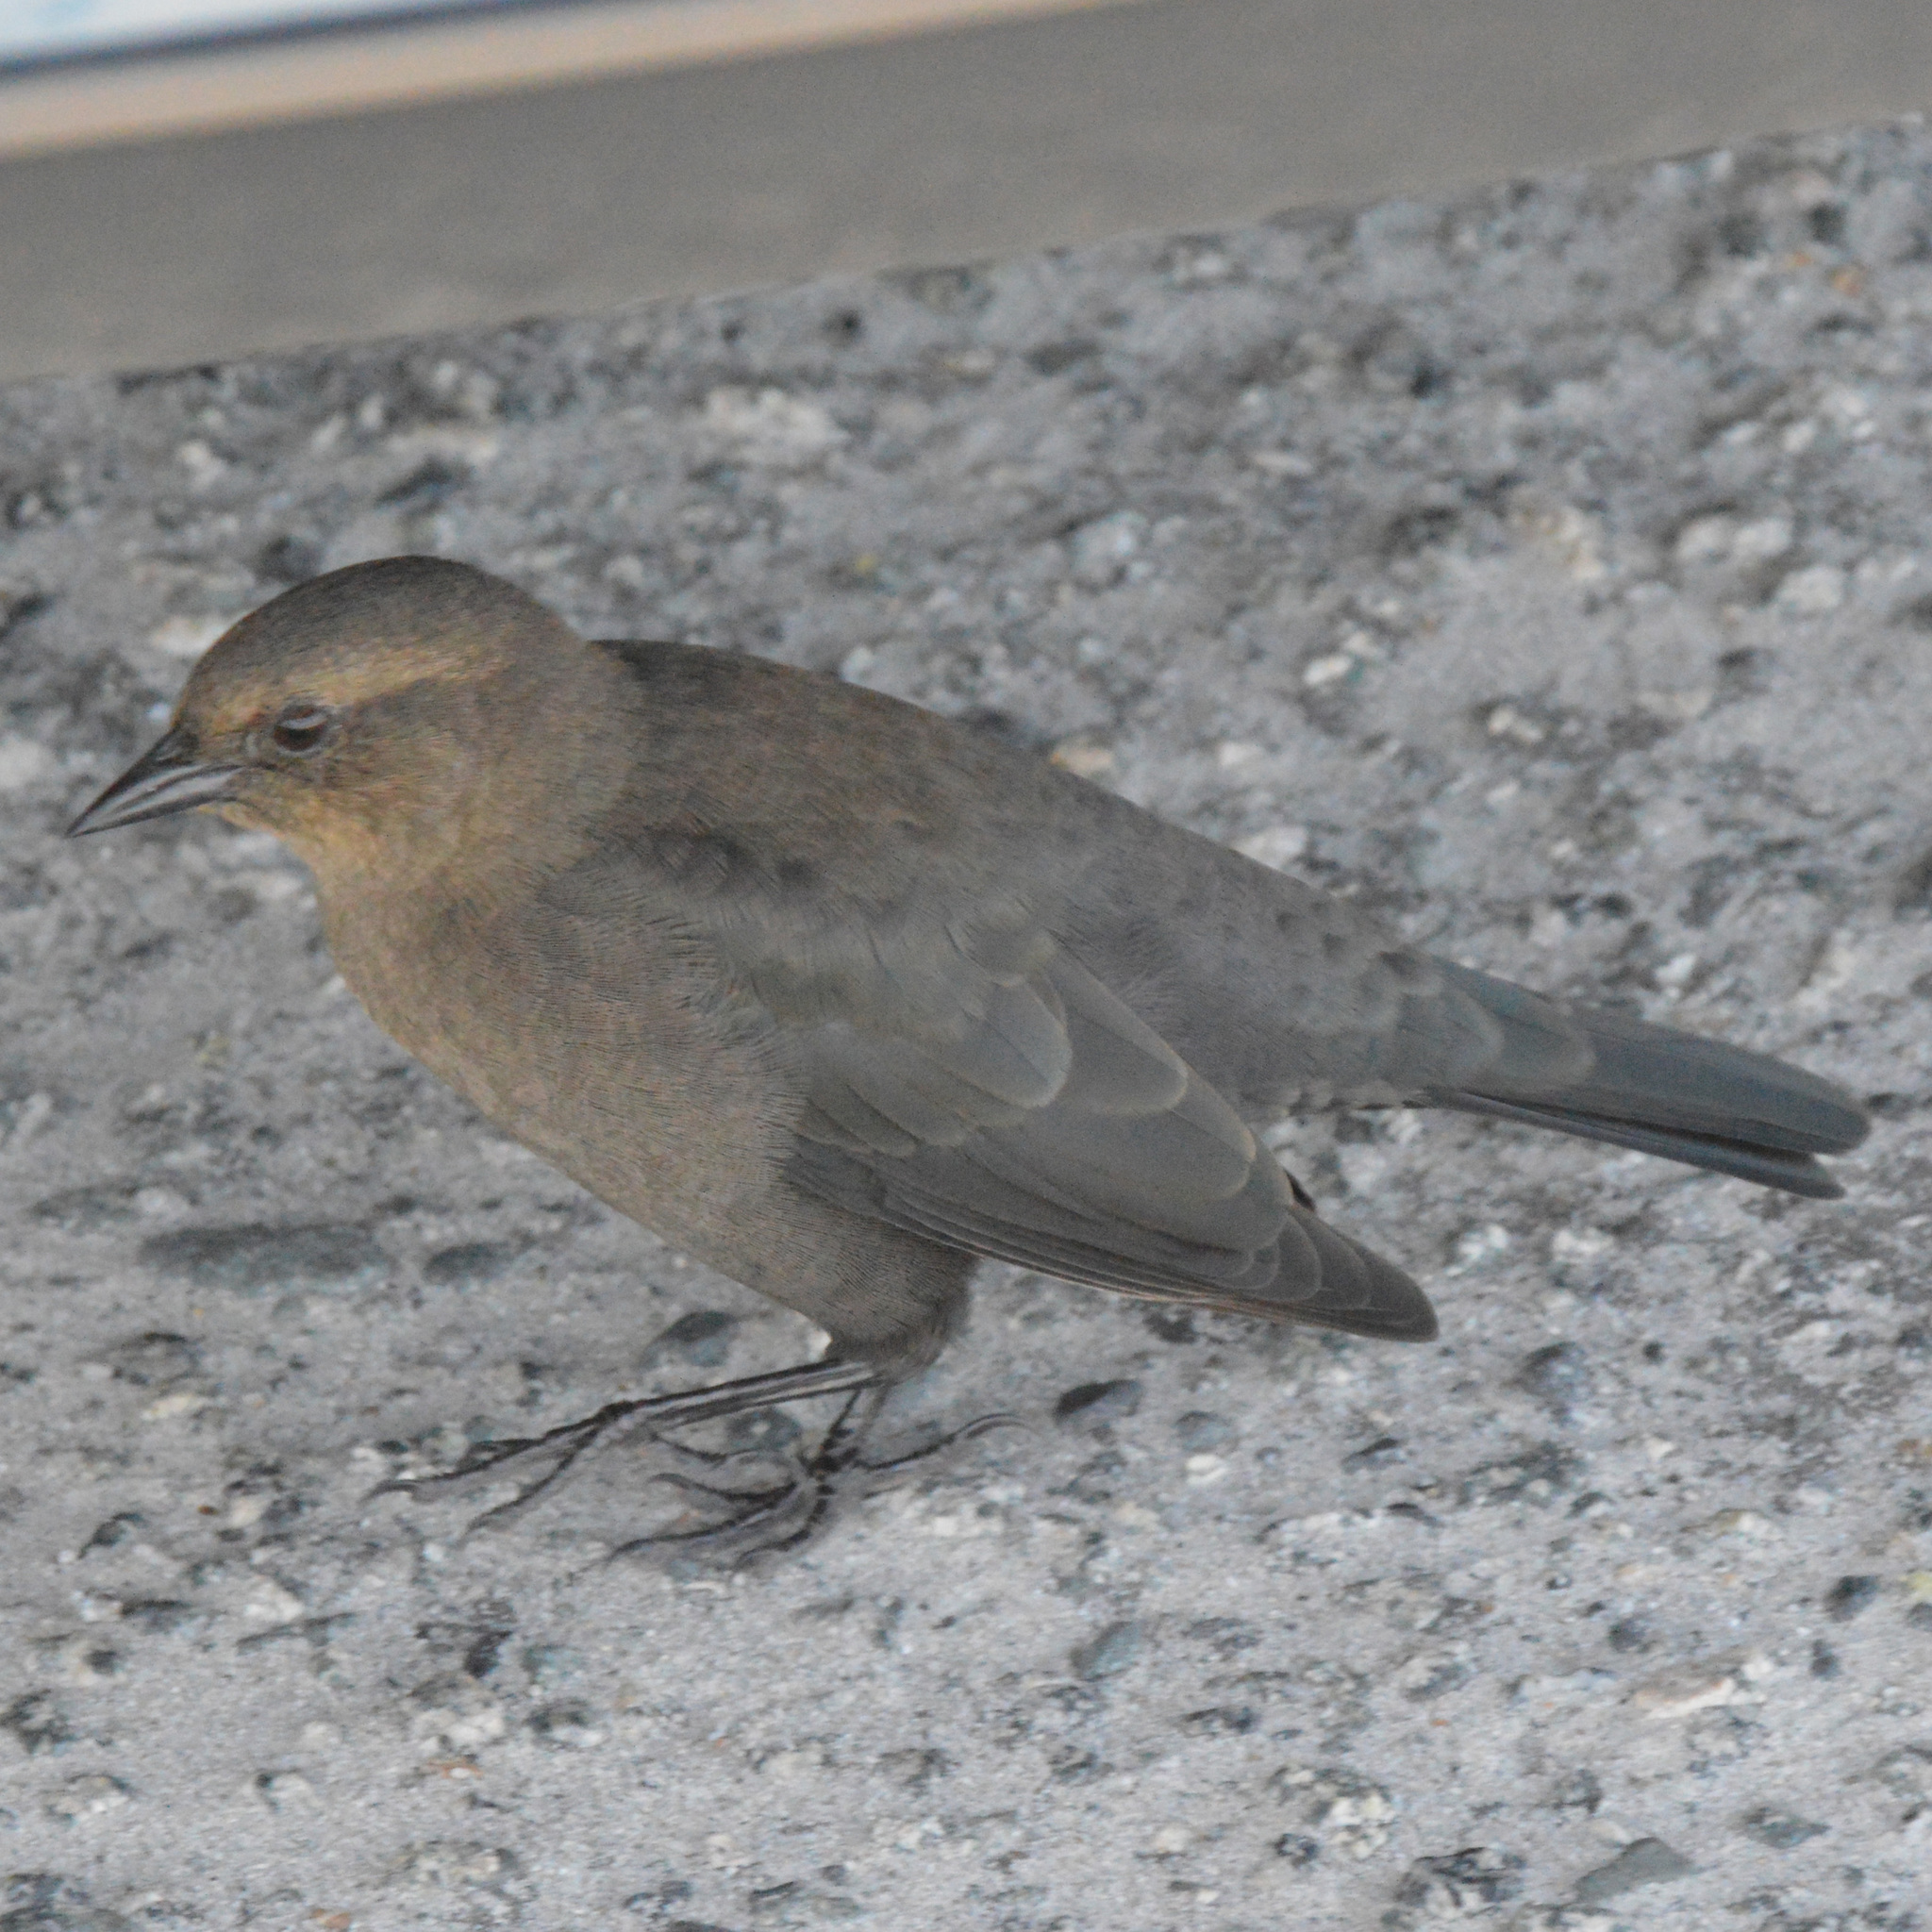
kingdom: Animalia
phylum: Chordata
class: Aves
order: Passeriformes
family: Icteridae
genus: Euphagus
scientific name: Euphagus cyanocephalus
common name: Brewer's blackbird
